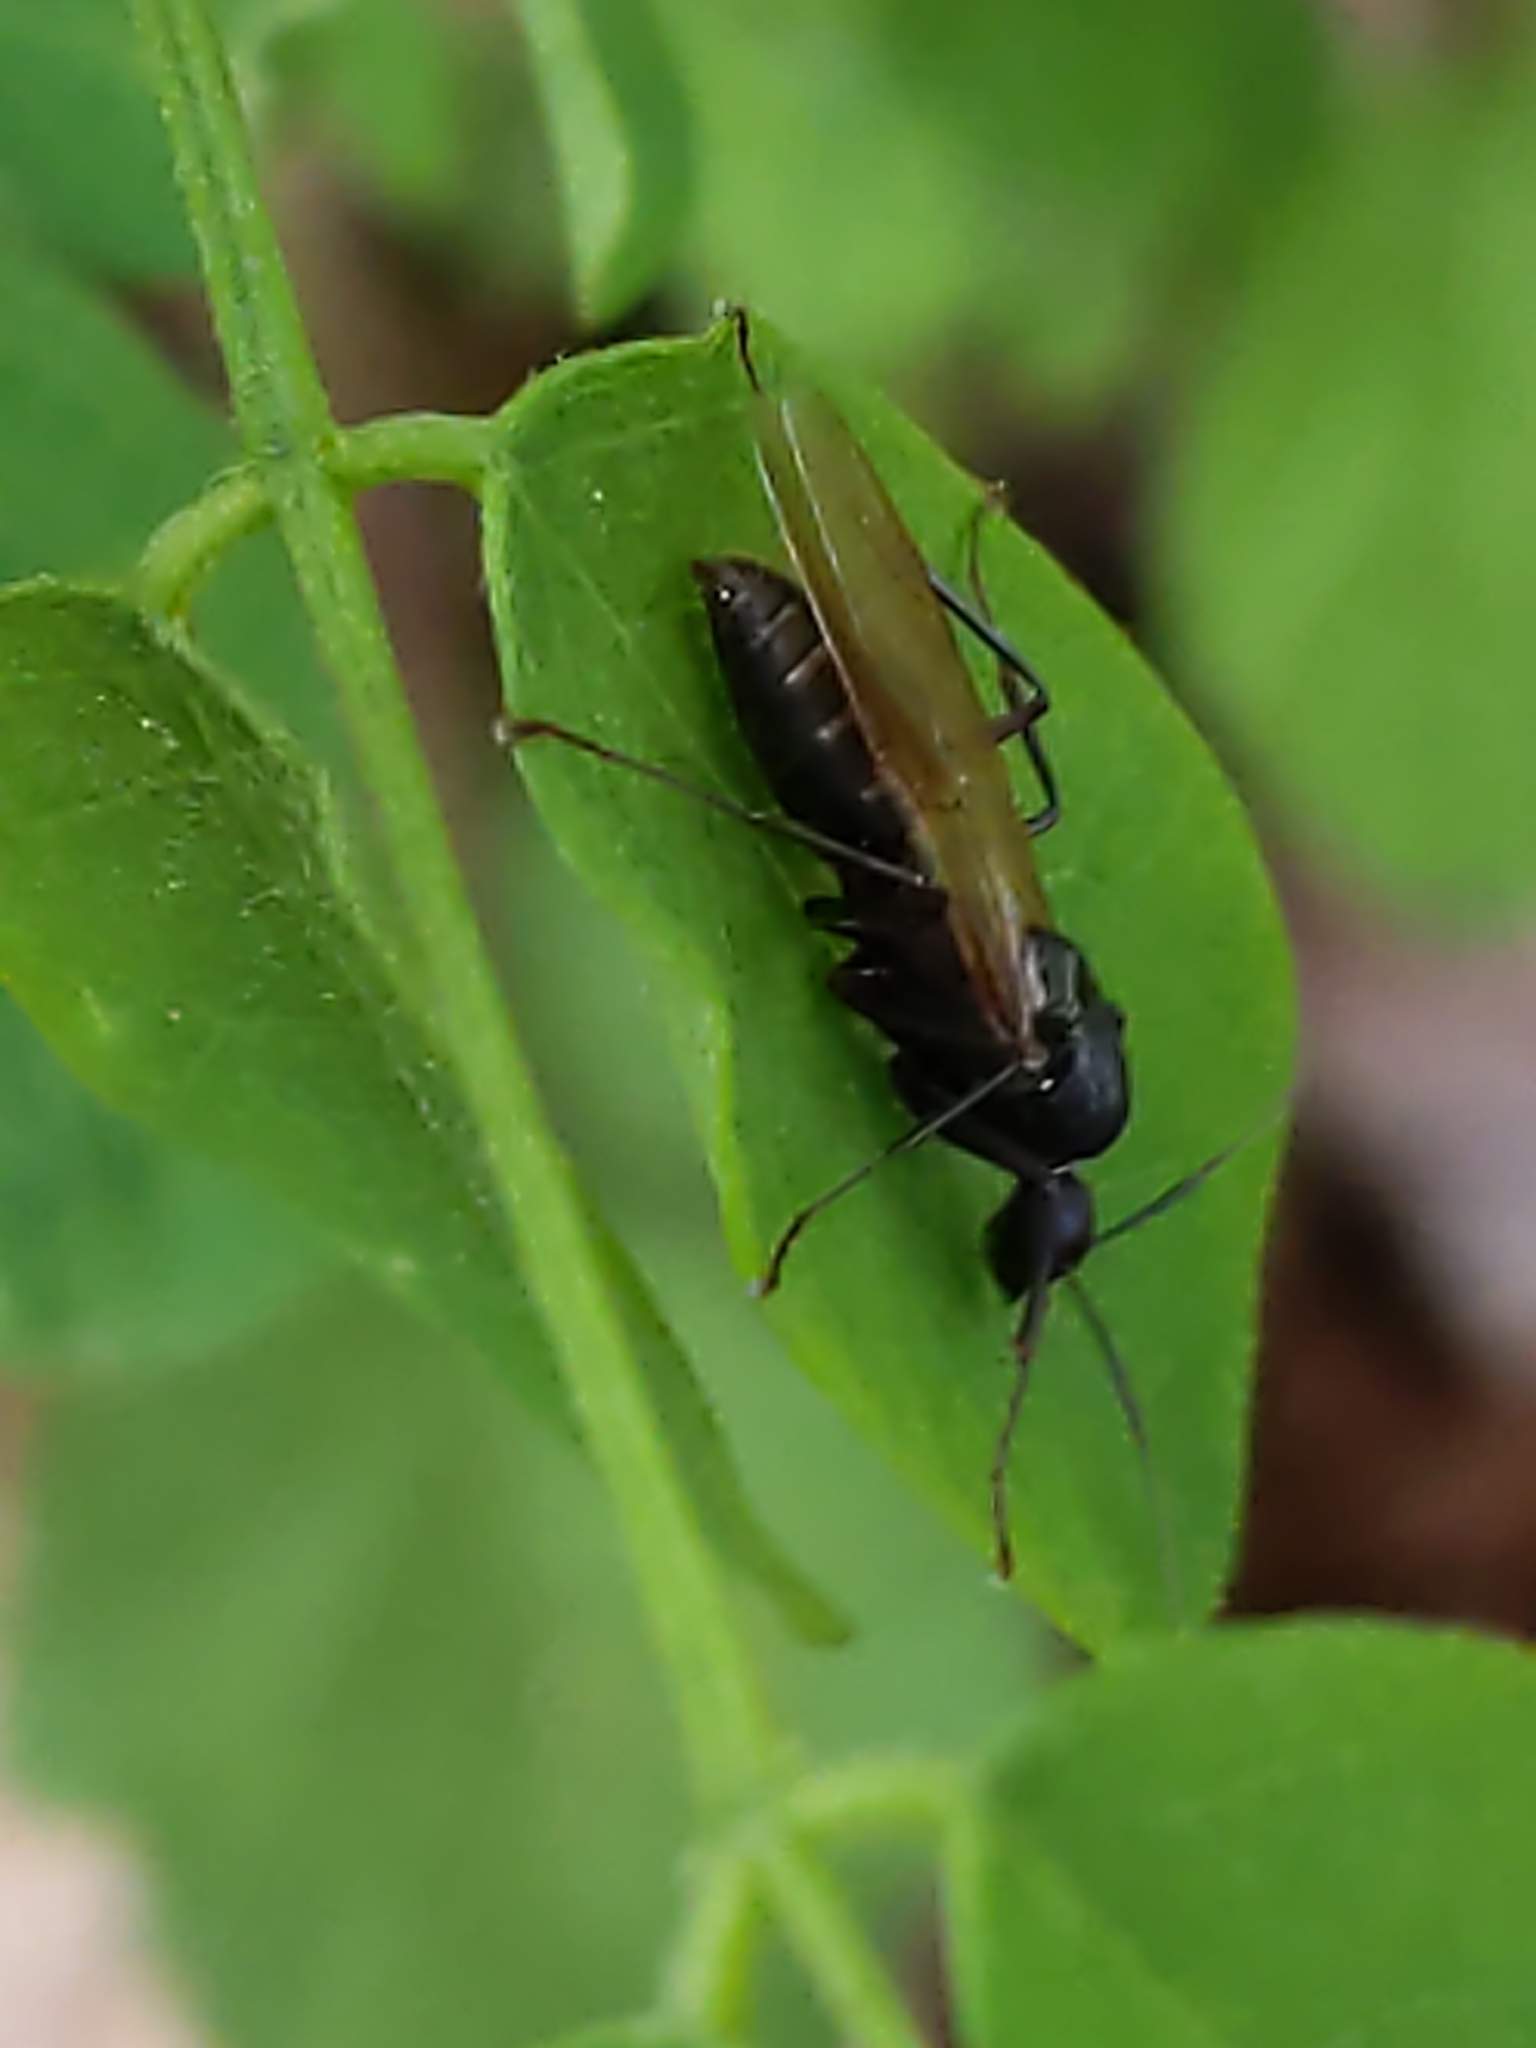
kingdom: Animalia
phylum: Arthropoda
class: Insecta
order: Hymenoptera
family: Formicidae
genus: Camponotus
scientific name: Camponotus
